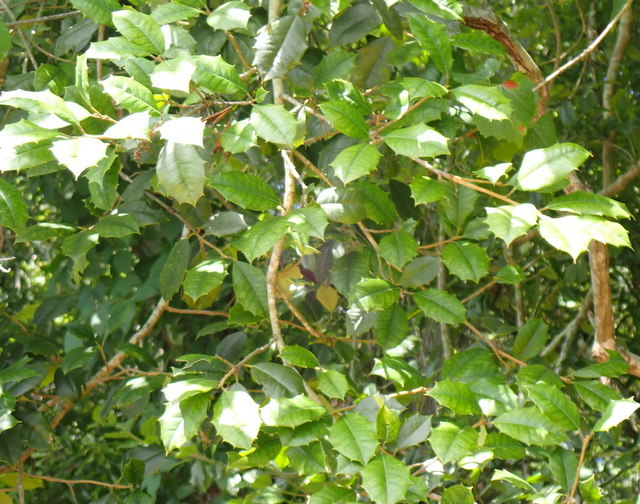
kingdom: Plantae
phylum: Tracheophyta
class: Magnoliopsida
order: Aquifoliales
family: Aquifoliaceae
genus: Ilex
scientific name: Ilex opaca
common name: American holly
